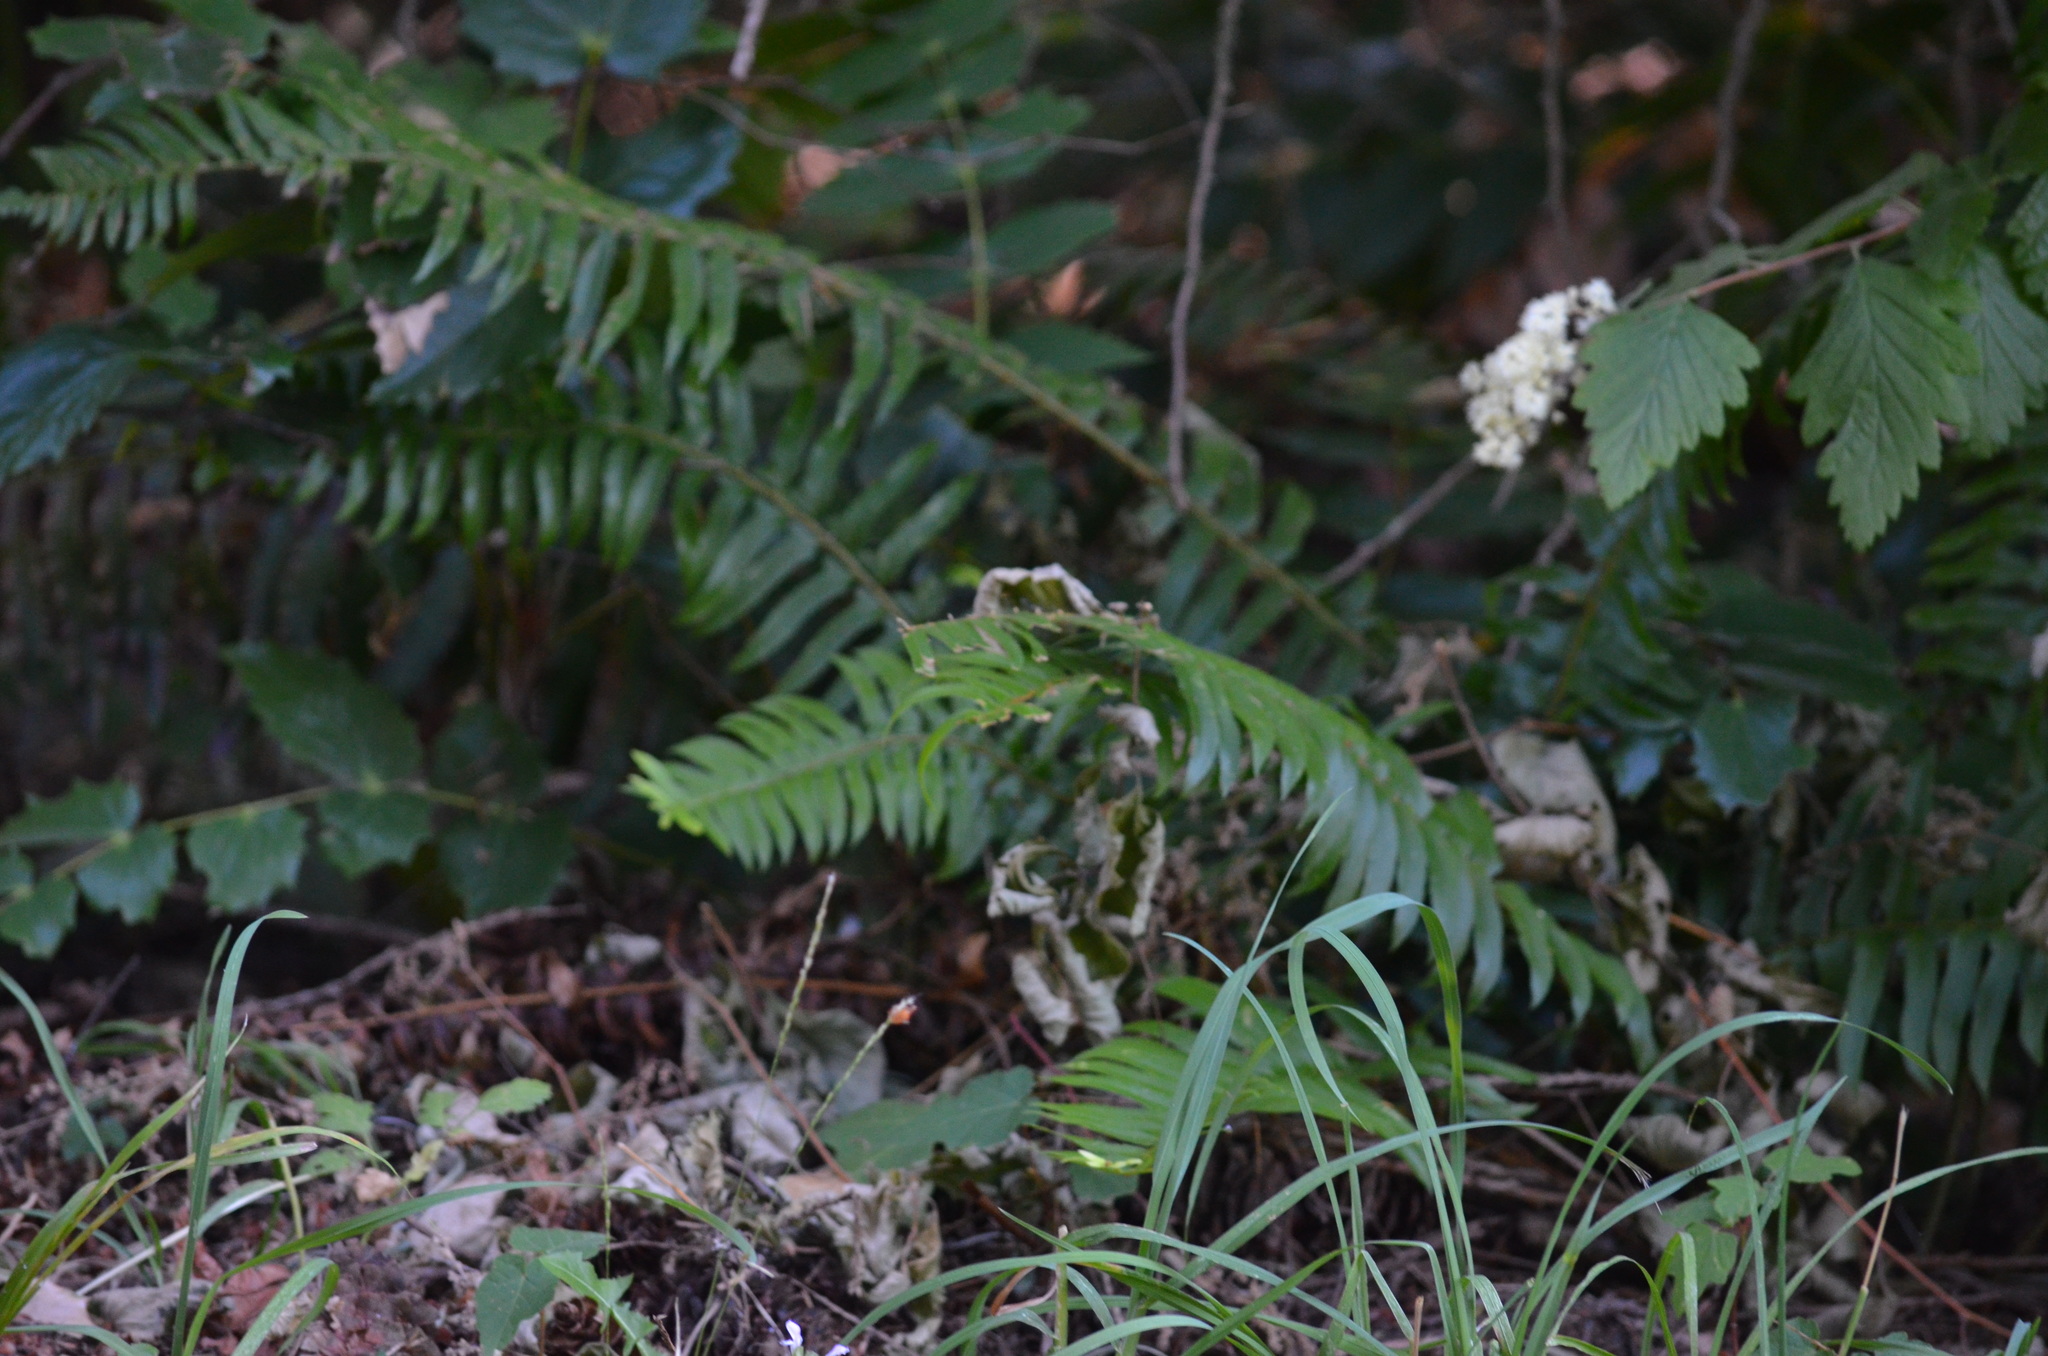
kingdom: Plantae
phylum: Tracheophyta
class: Polypodiopsida
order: Polypodiales
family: Dryopteridaceae
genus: Polystichum
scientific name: Polystichum munitum
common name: Western sword-fern
